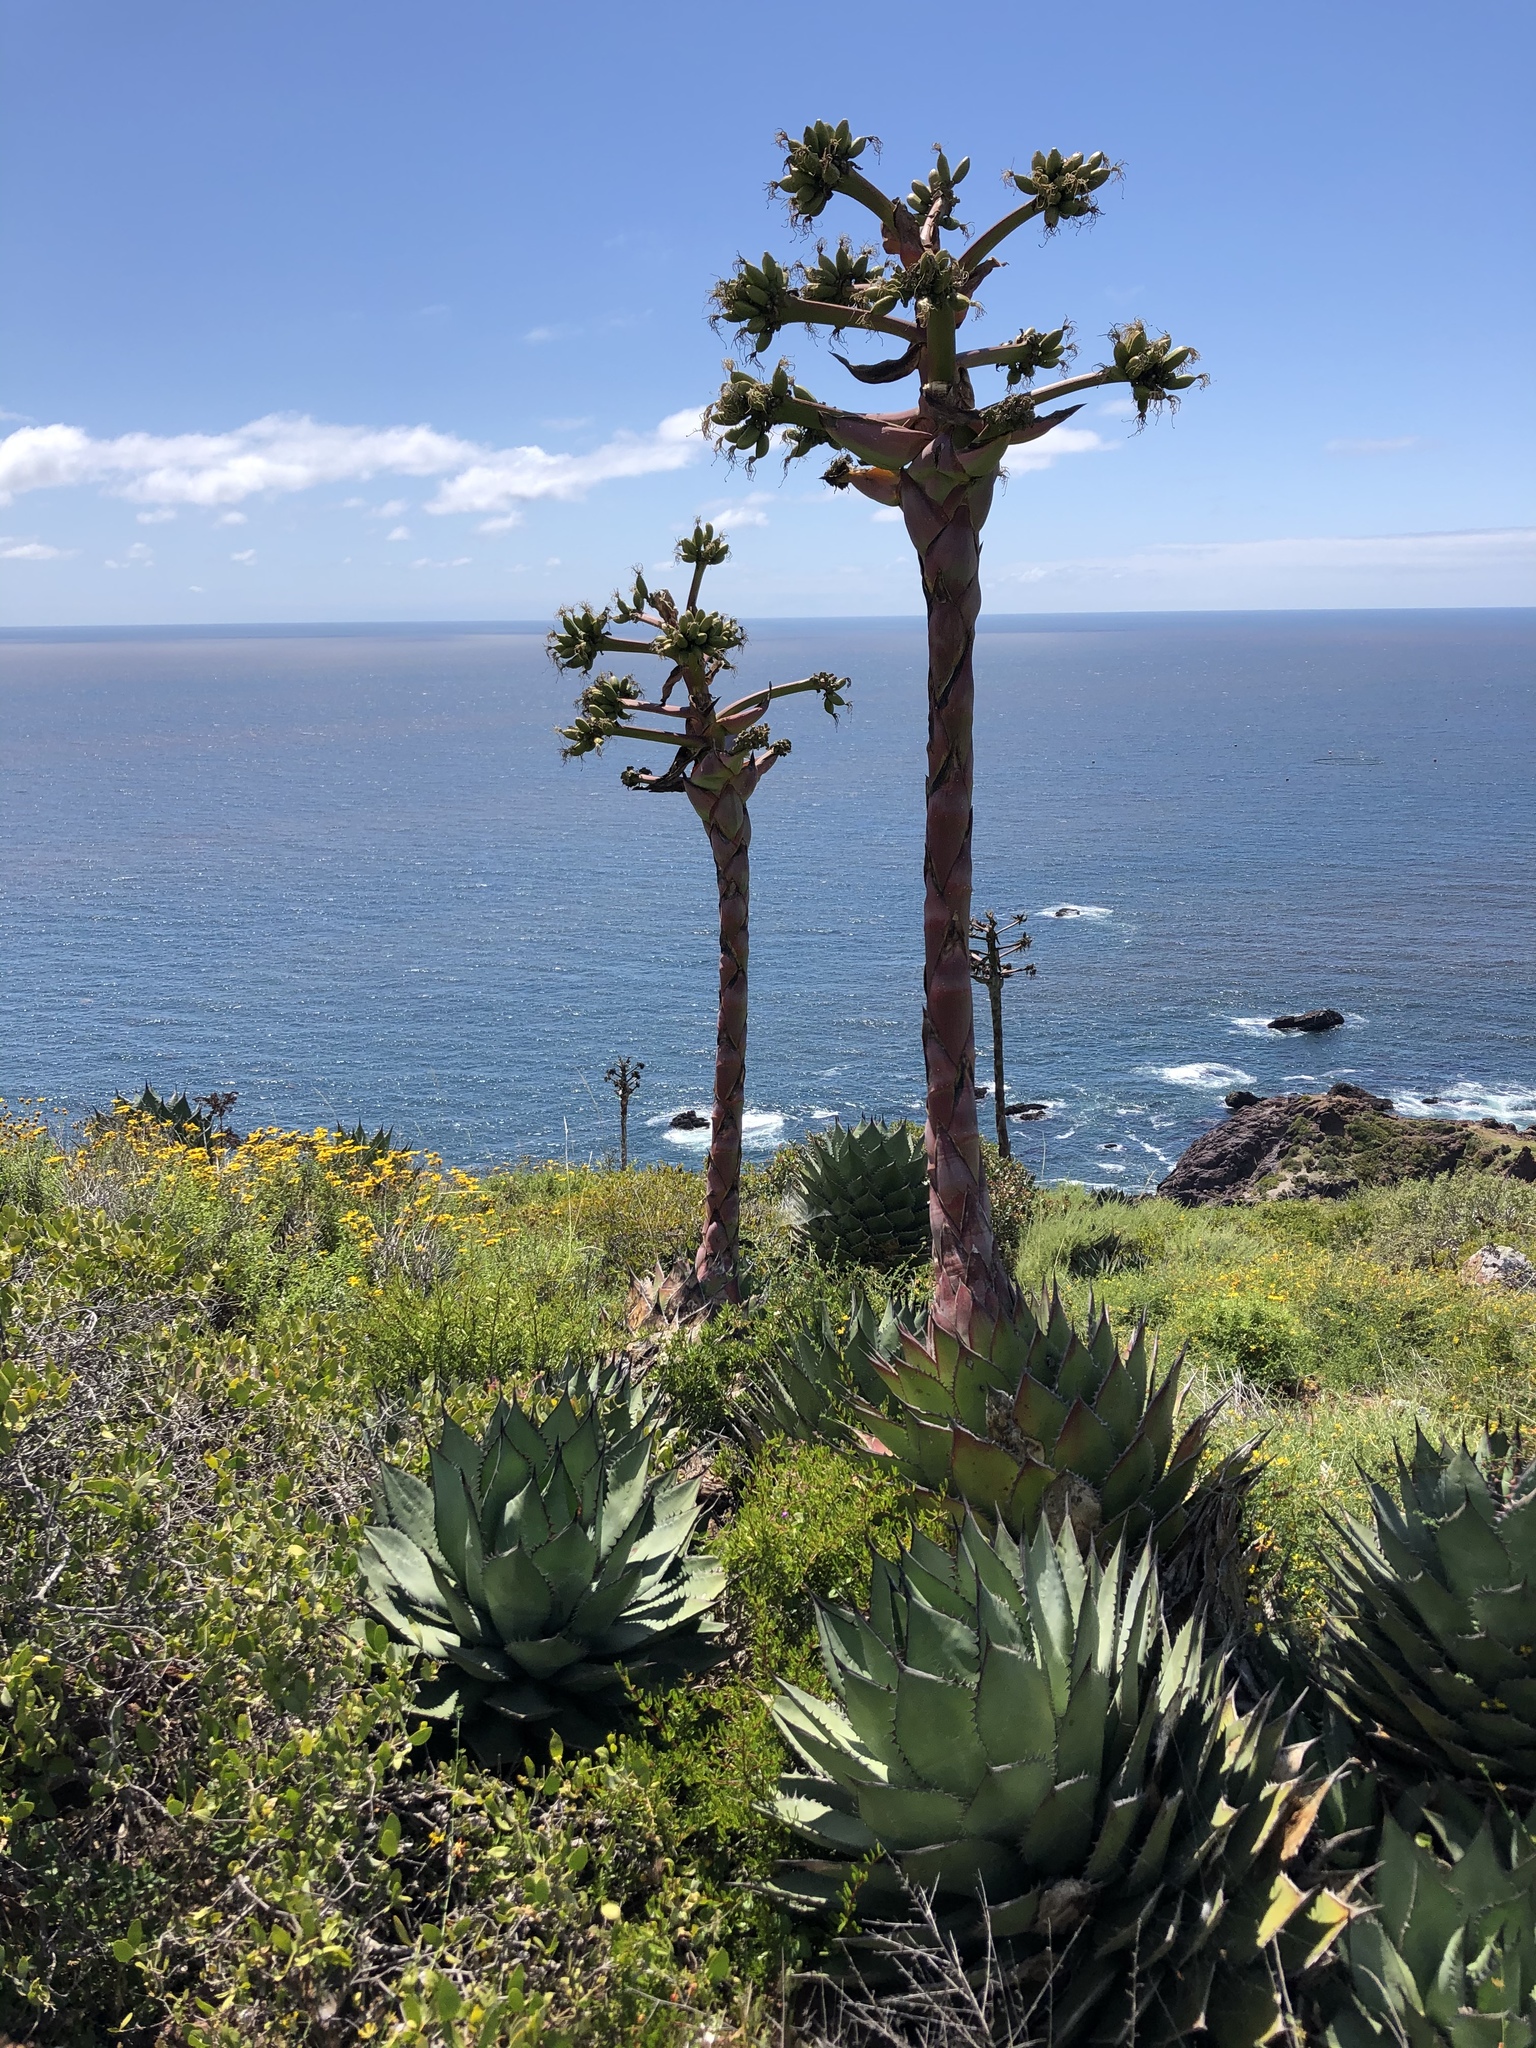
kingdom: Plantae
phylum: Tracheophyta
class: Liliopsida
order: Asparagales
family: Asparagaceae
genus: Agave
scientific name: Agave shawii
